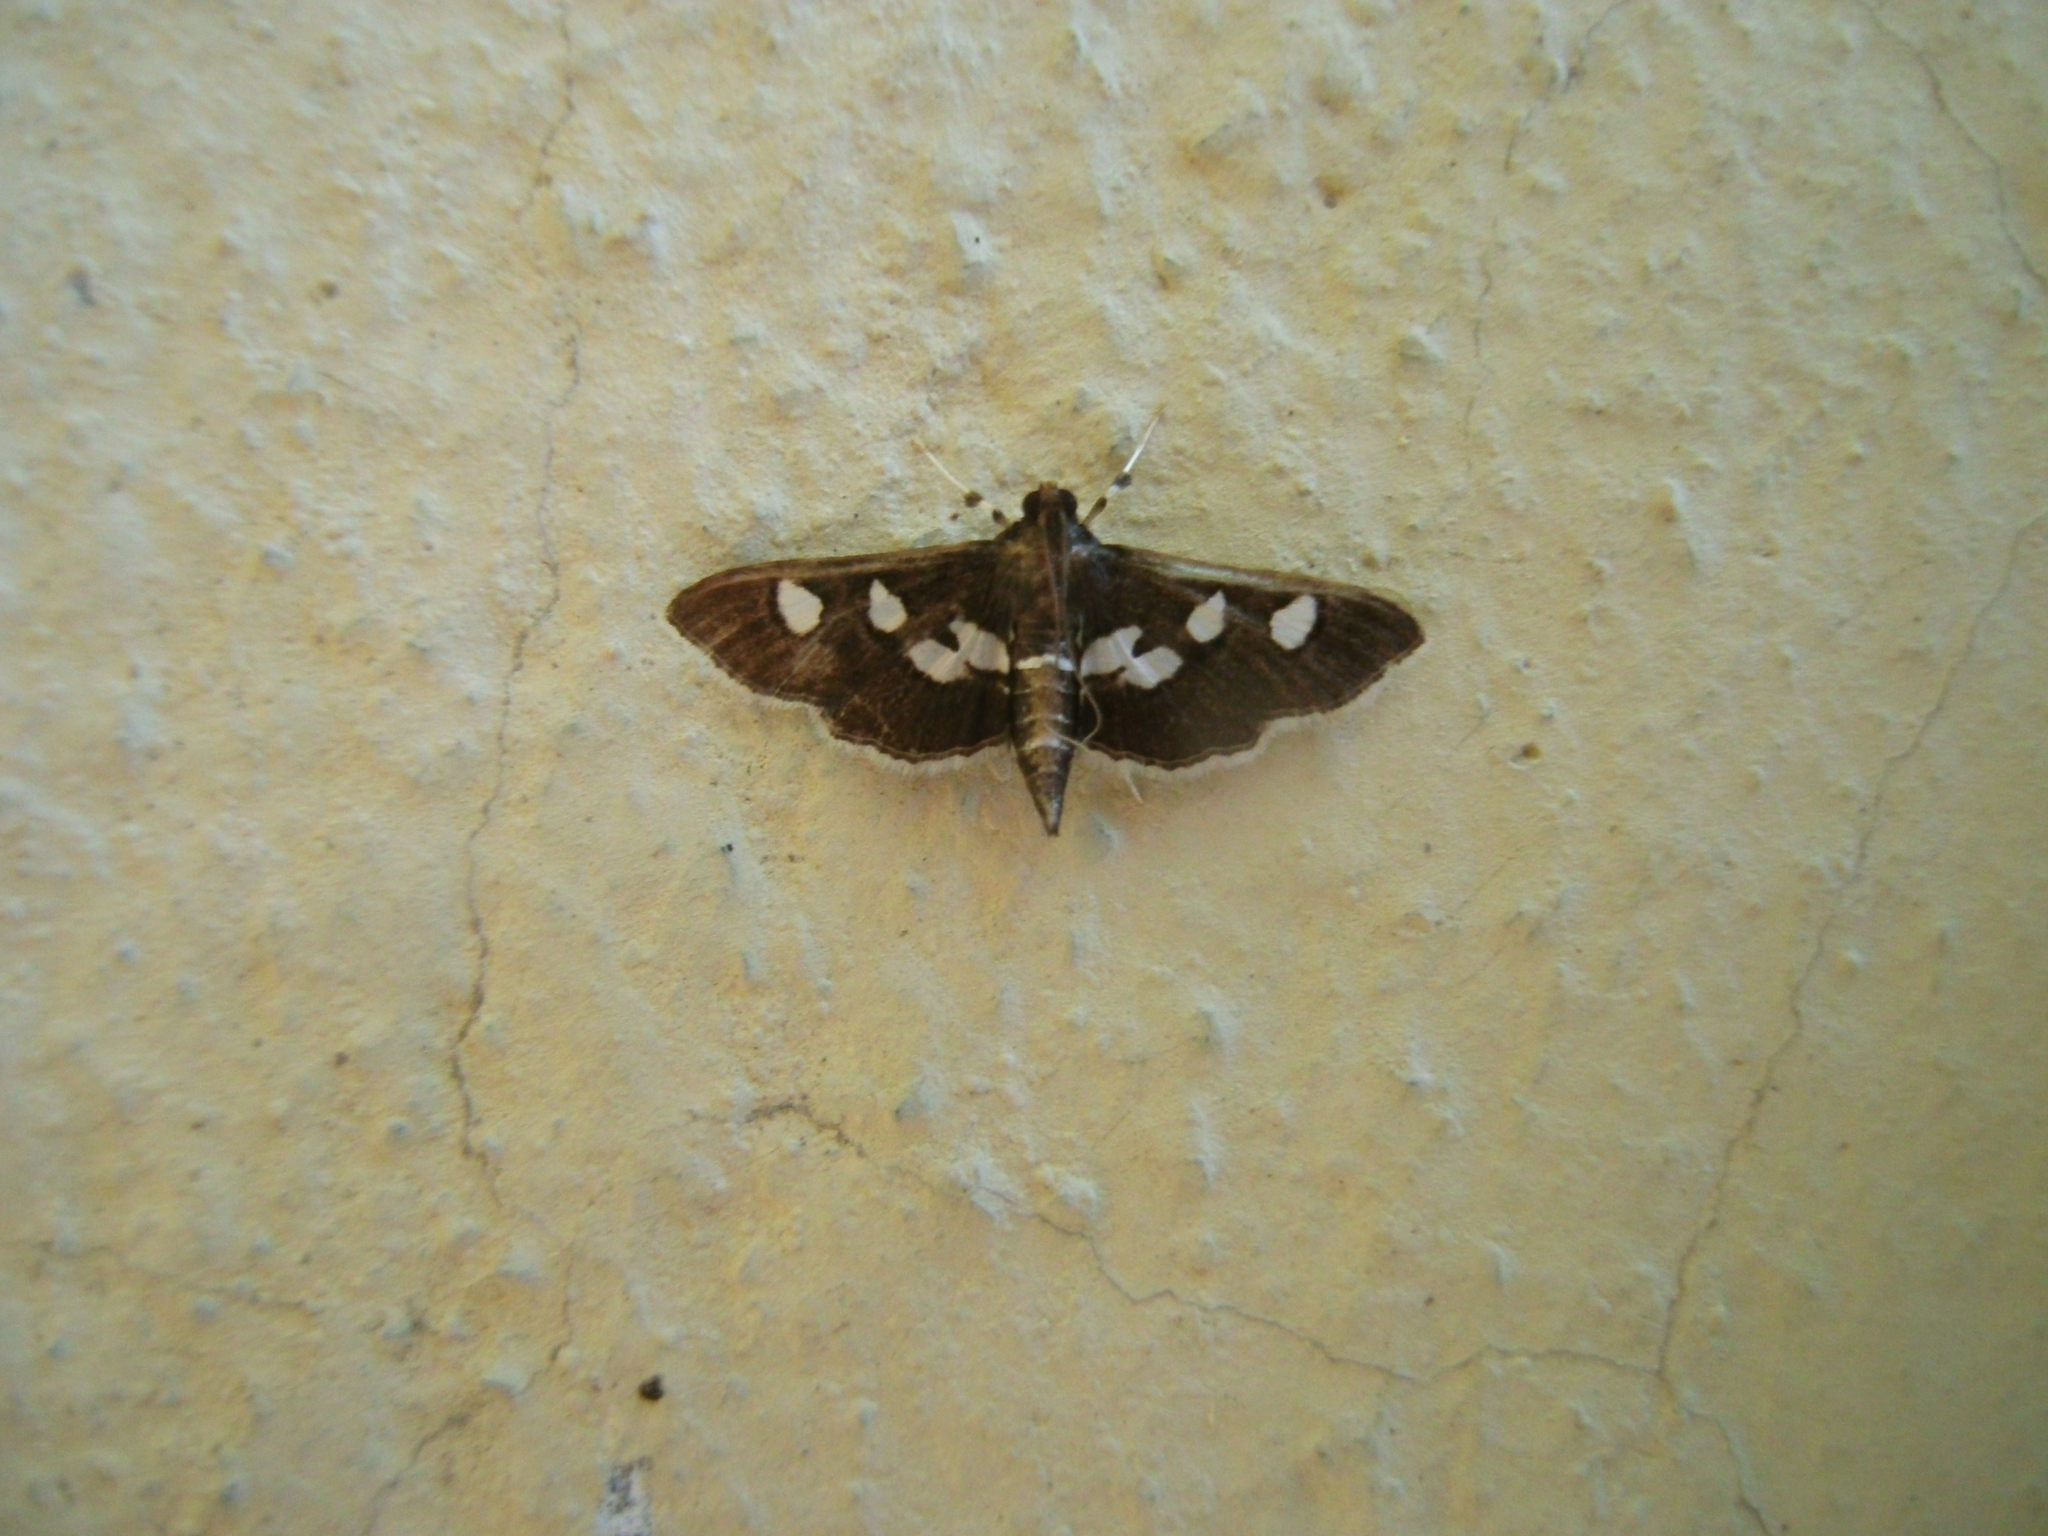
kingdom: Animalia
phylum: Arthropoda
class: Insecta
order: Lepidoptera
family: Crambidae
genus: Desmia
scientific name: Desmia funeralis
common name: Grape leaf folder moth
